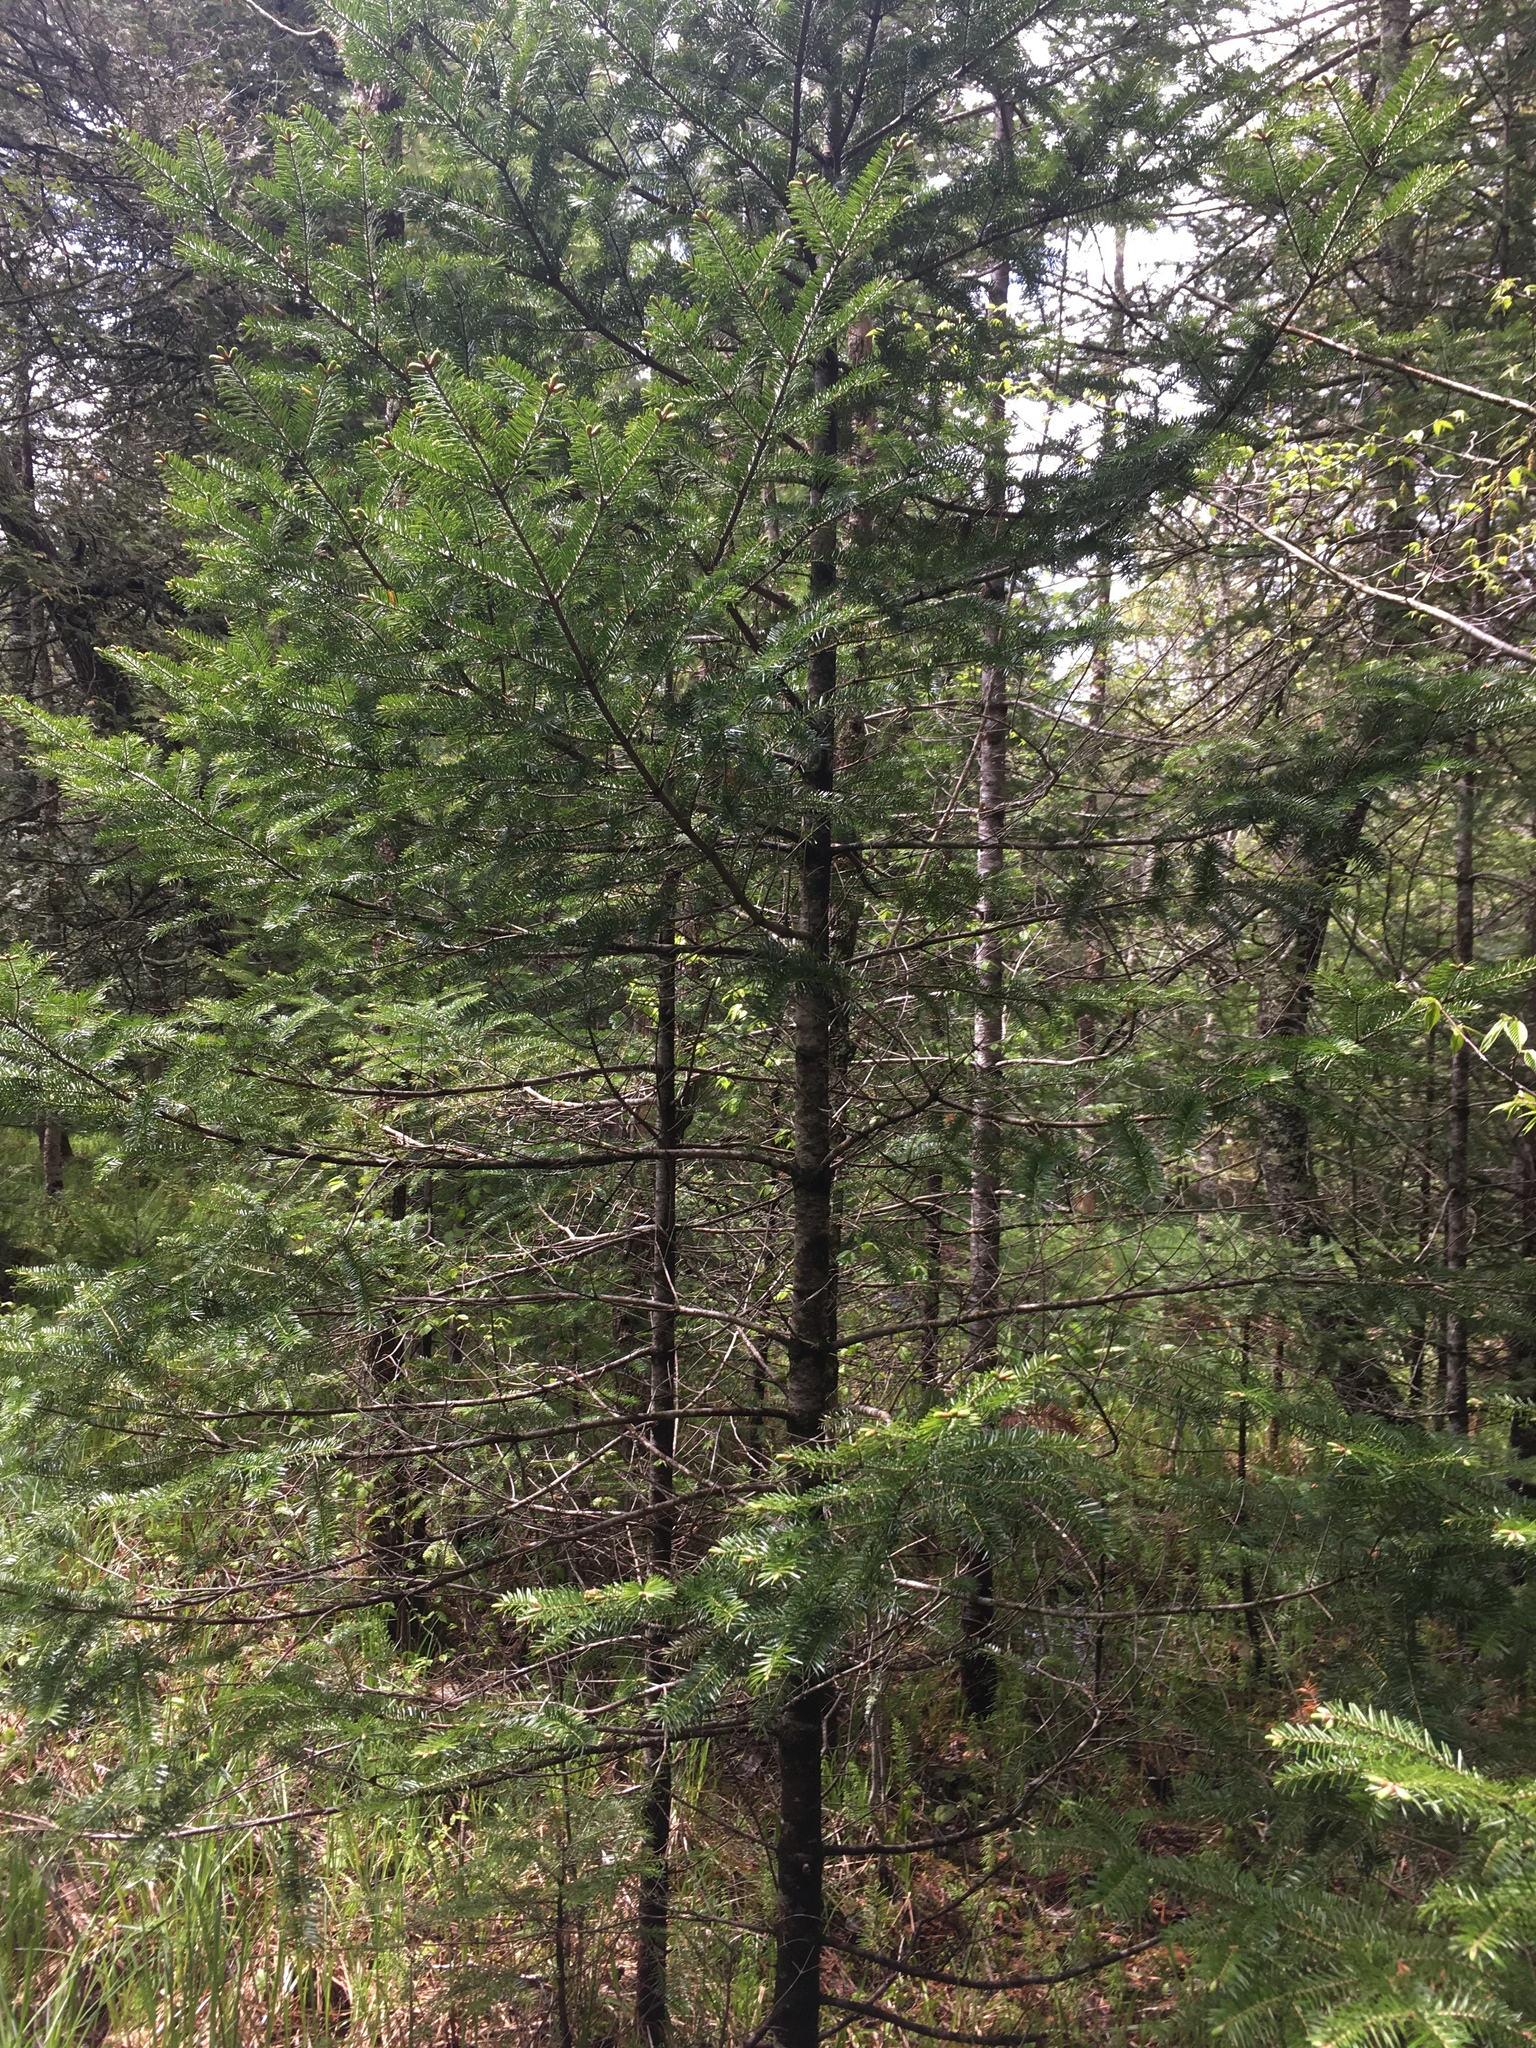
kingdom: Plantae
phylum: Tracheophyta
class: Pinopsida
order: Pinales
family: Pinaceae
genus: Abies
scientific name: Abies balsamea
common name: Balsam fir
